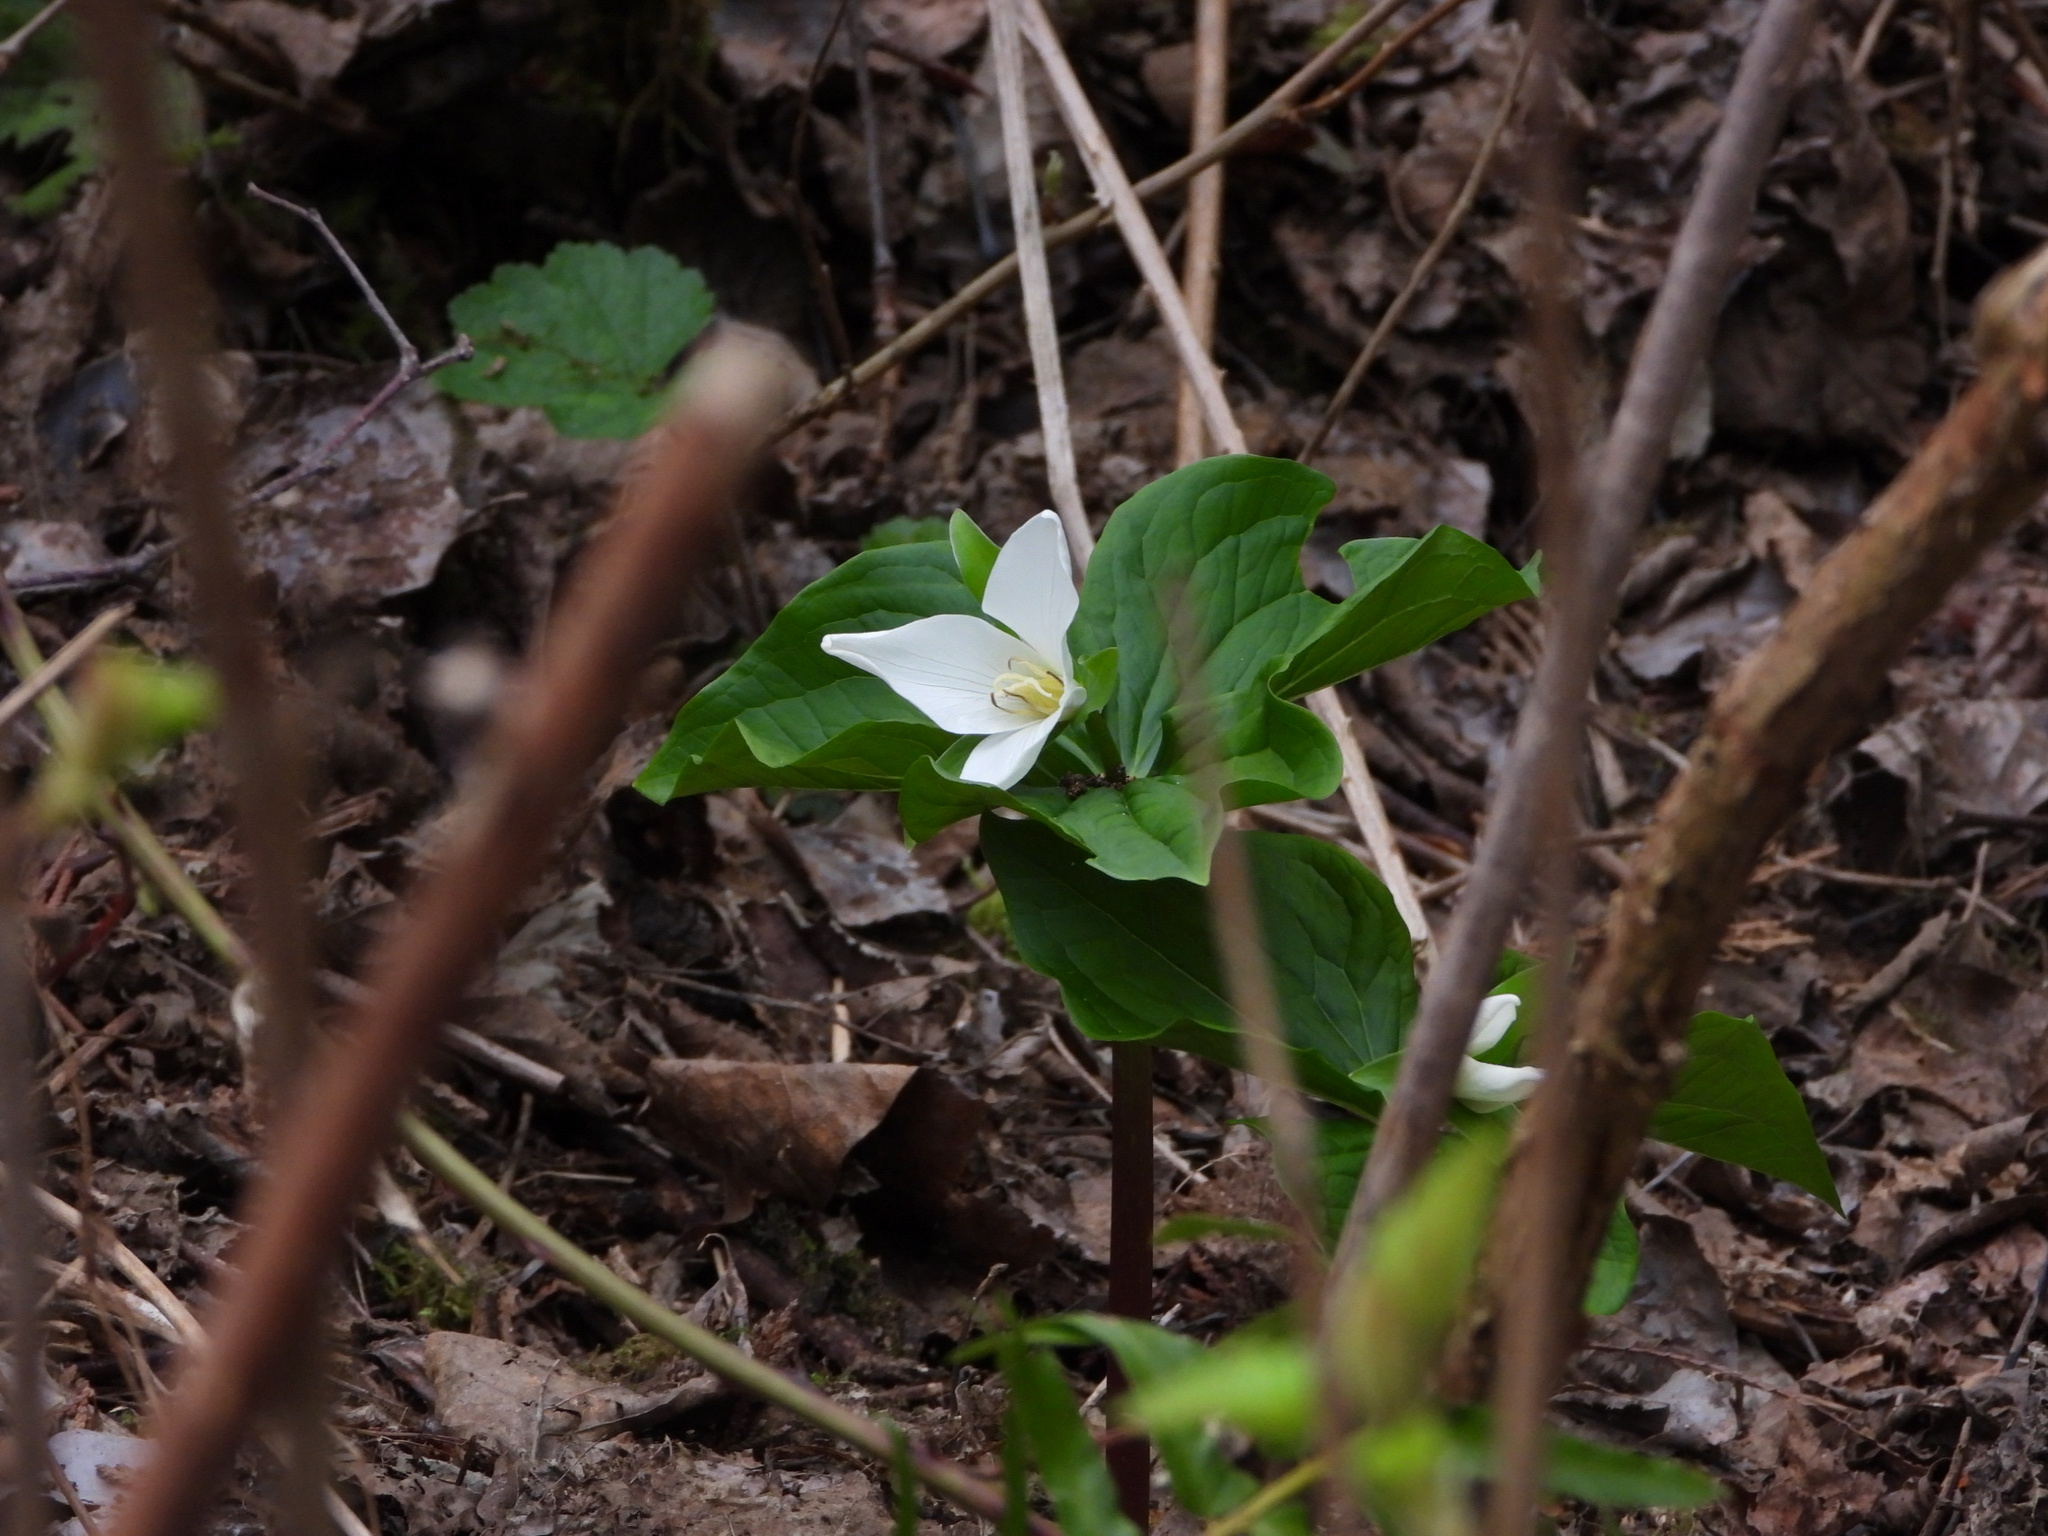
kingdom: Plantae
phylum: Tracheophyta
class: Liliopsida
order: Liliales
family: Melanthiaceae
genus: Trillium
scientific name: Trillium ovatum
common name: Pacific trillium
